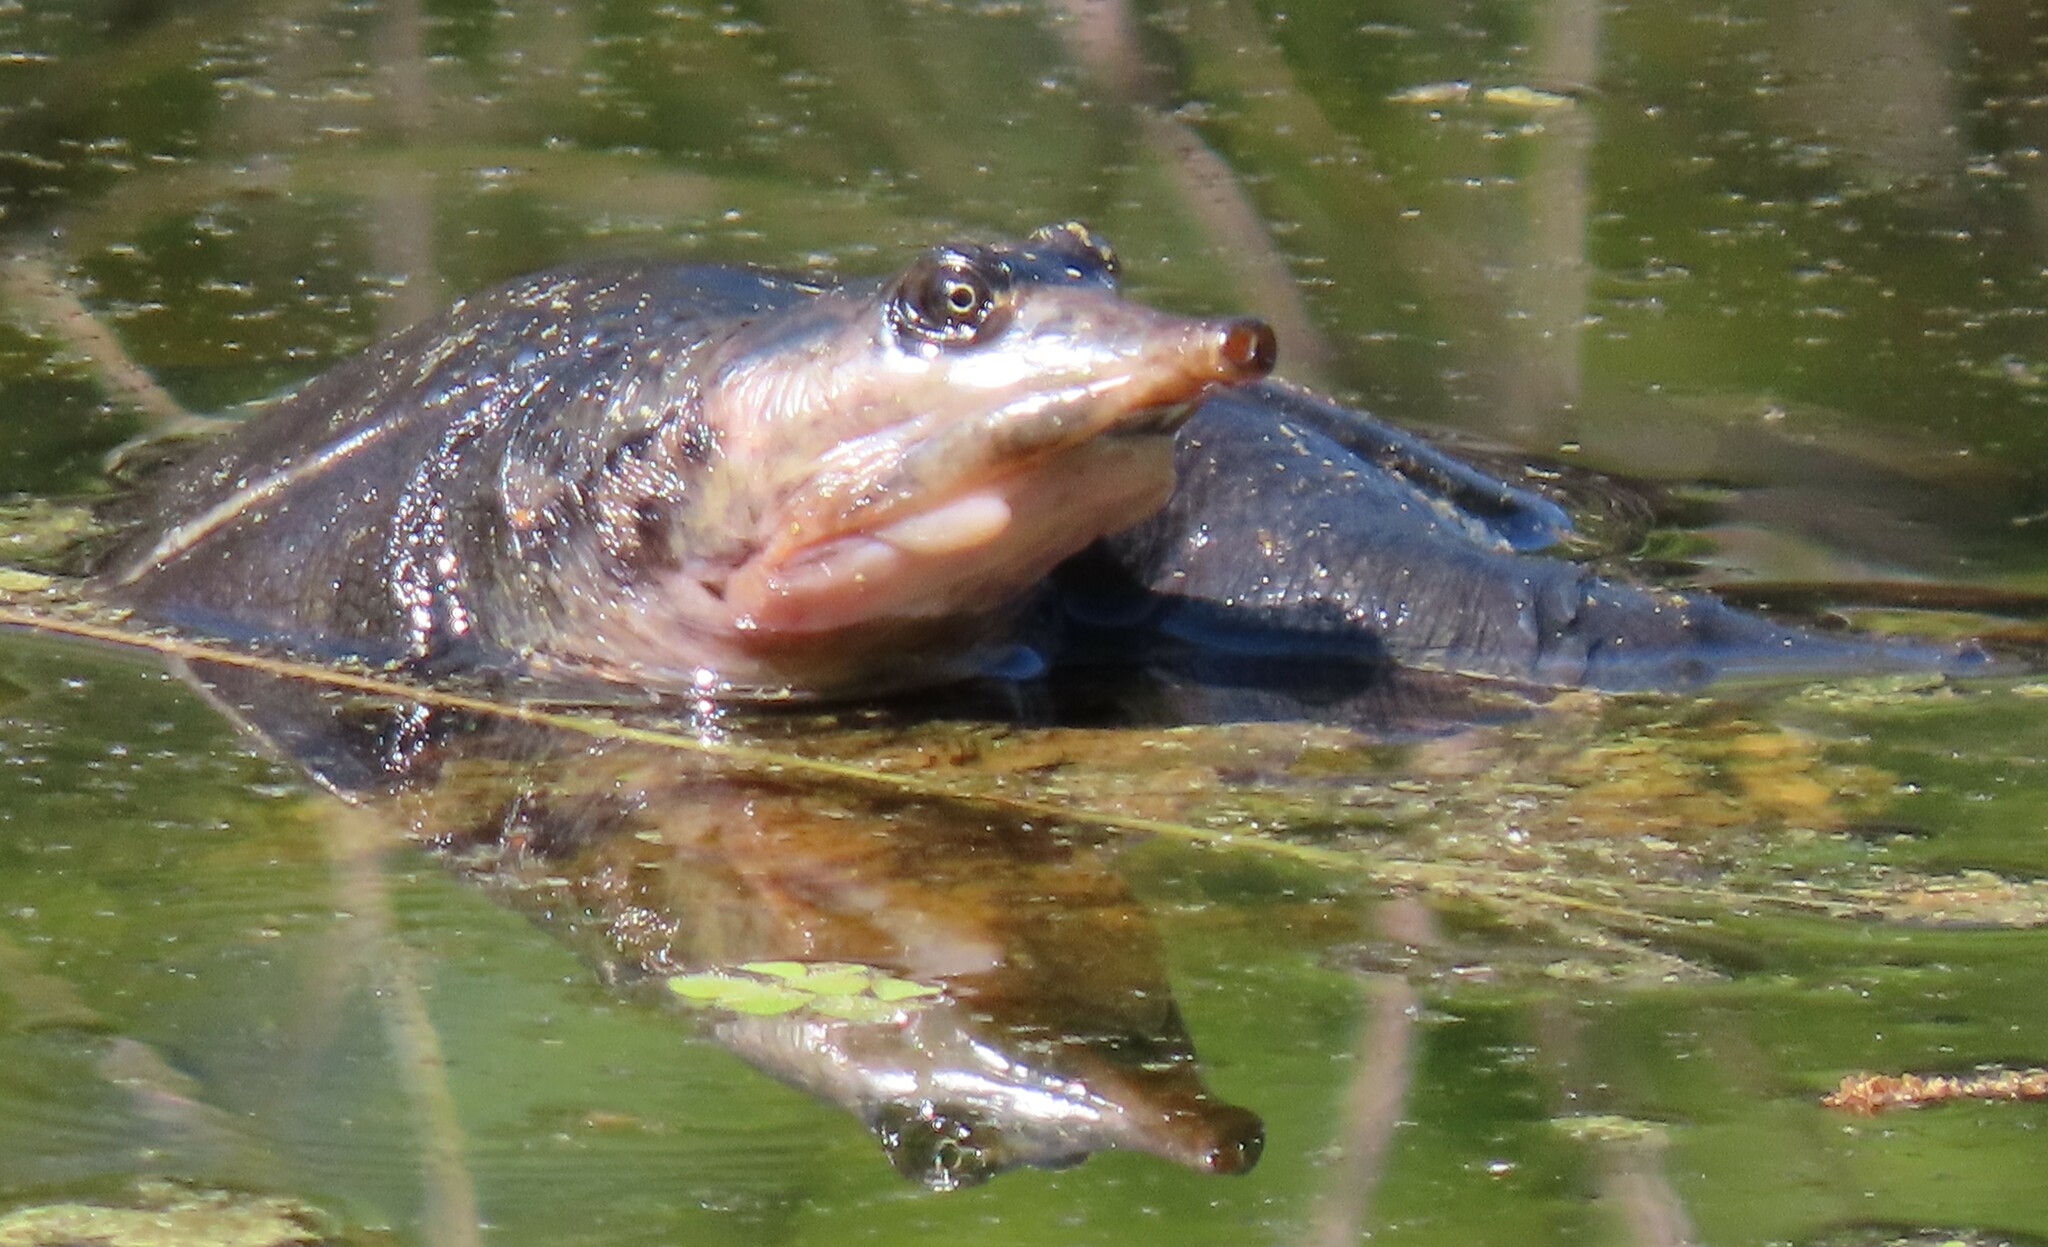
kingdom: Animalia
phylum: Chordata
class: Testudines
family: Trionychidae
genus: Apalone
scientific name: Apalone ferox
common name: Florida softshell turtle
